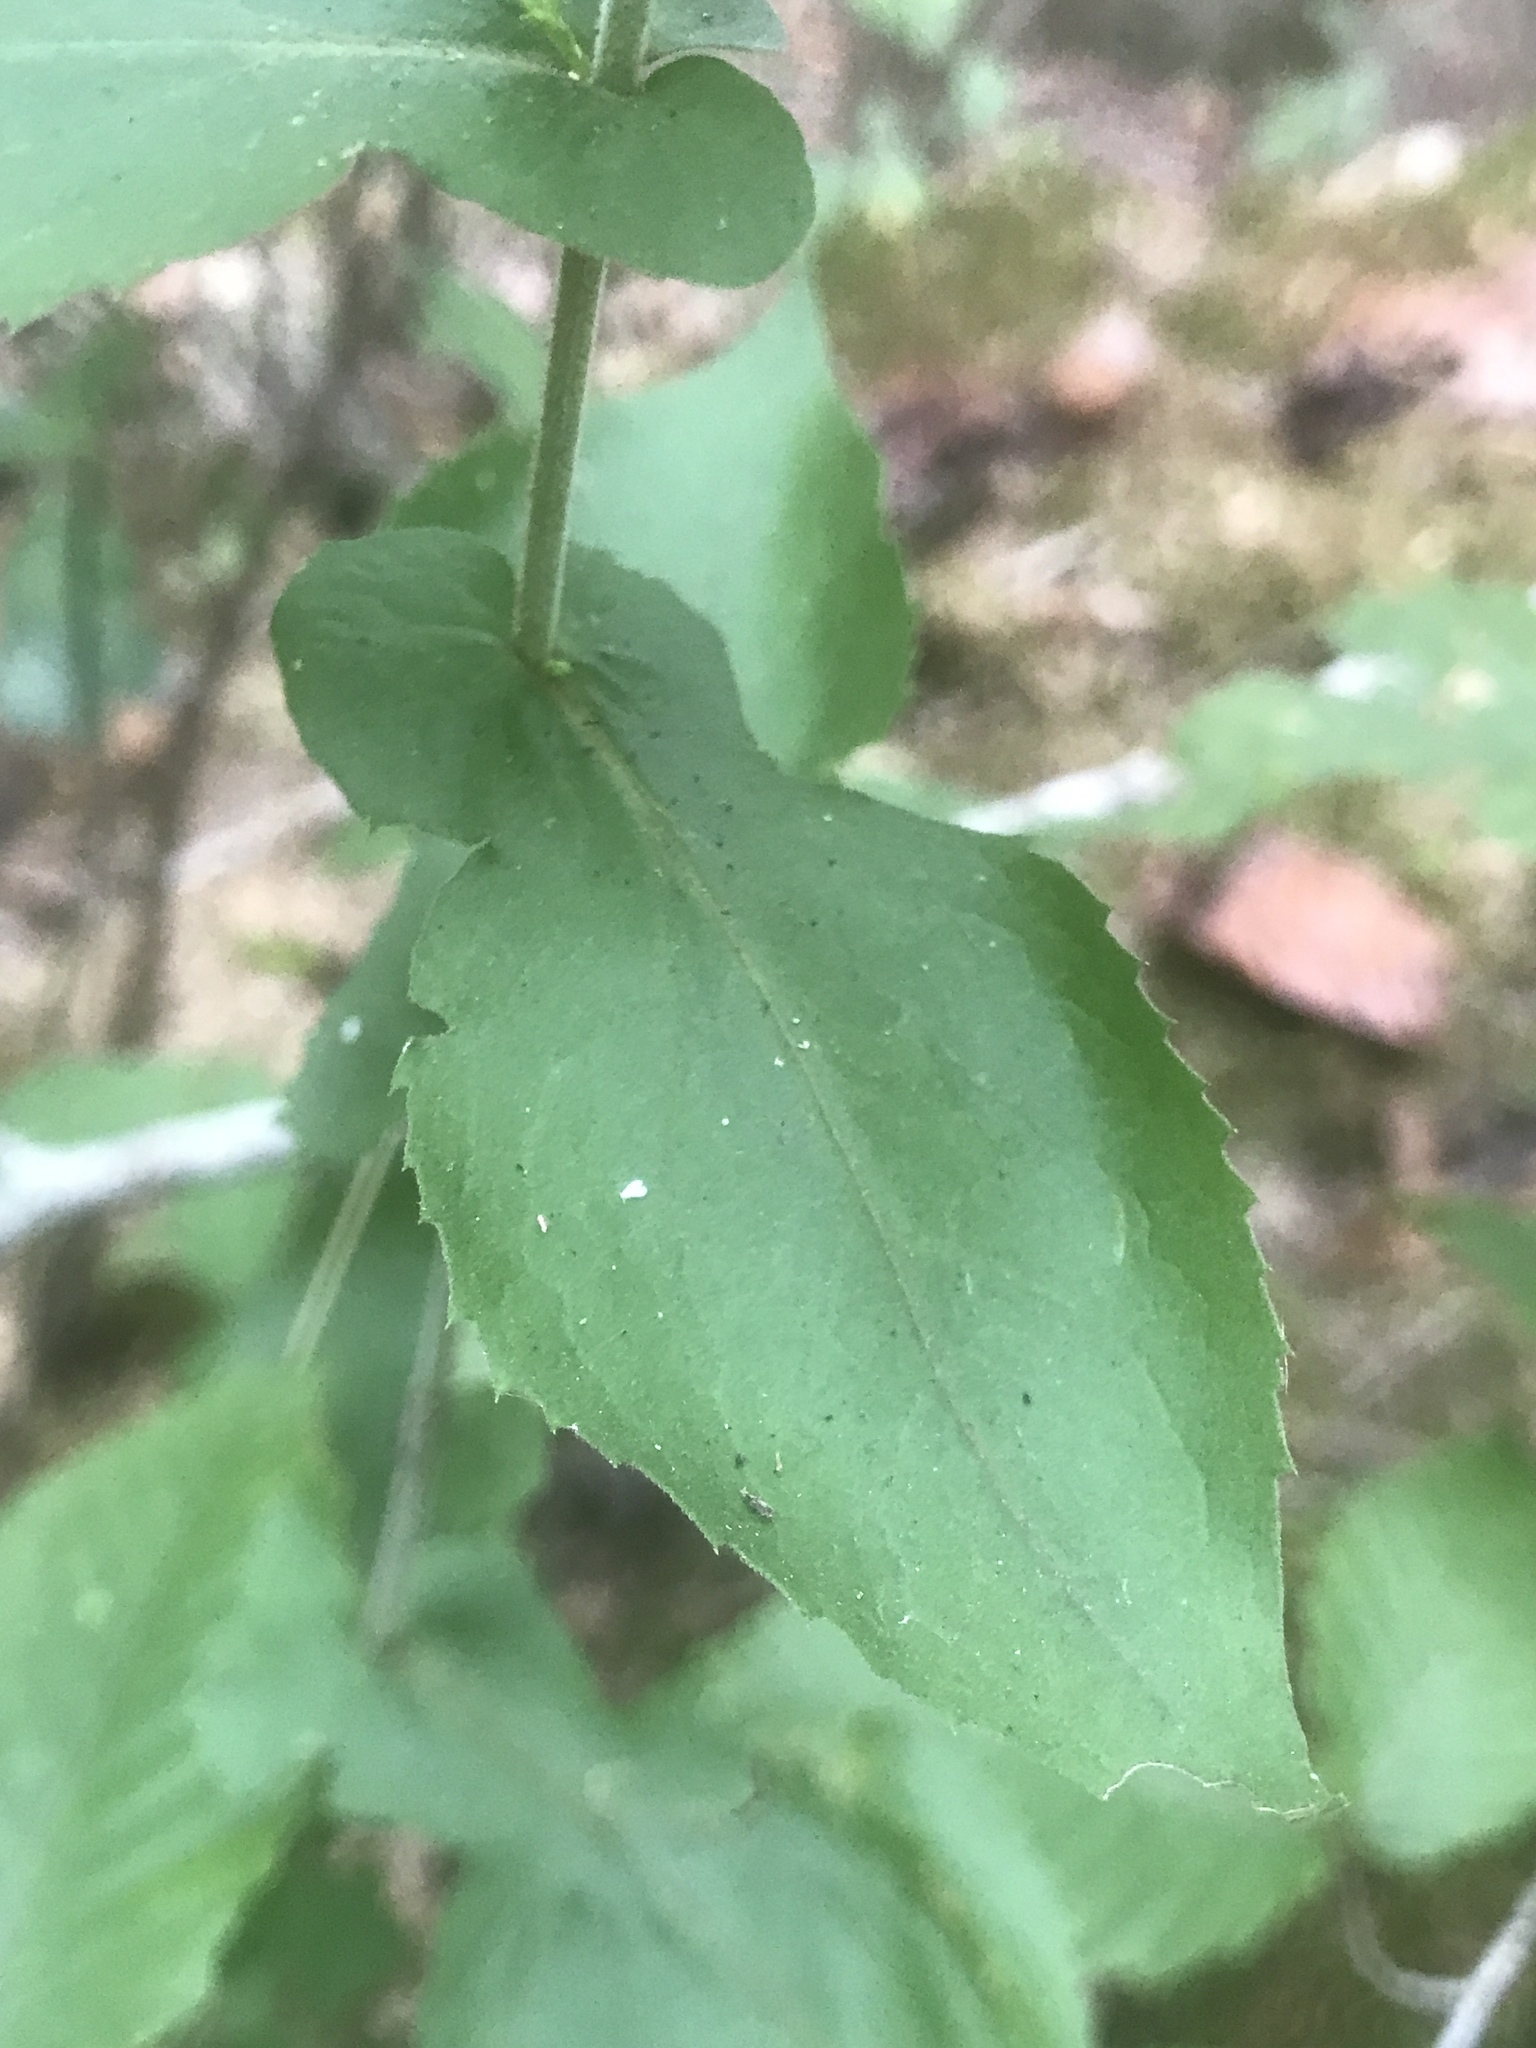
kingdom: Plantae
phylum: Tracheophyta
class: Magnoliopsida
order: Asterales
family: Asteraceae
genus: Solidago
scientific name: Solidago auriculata
